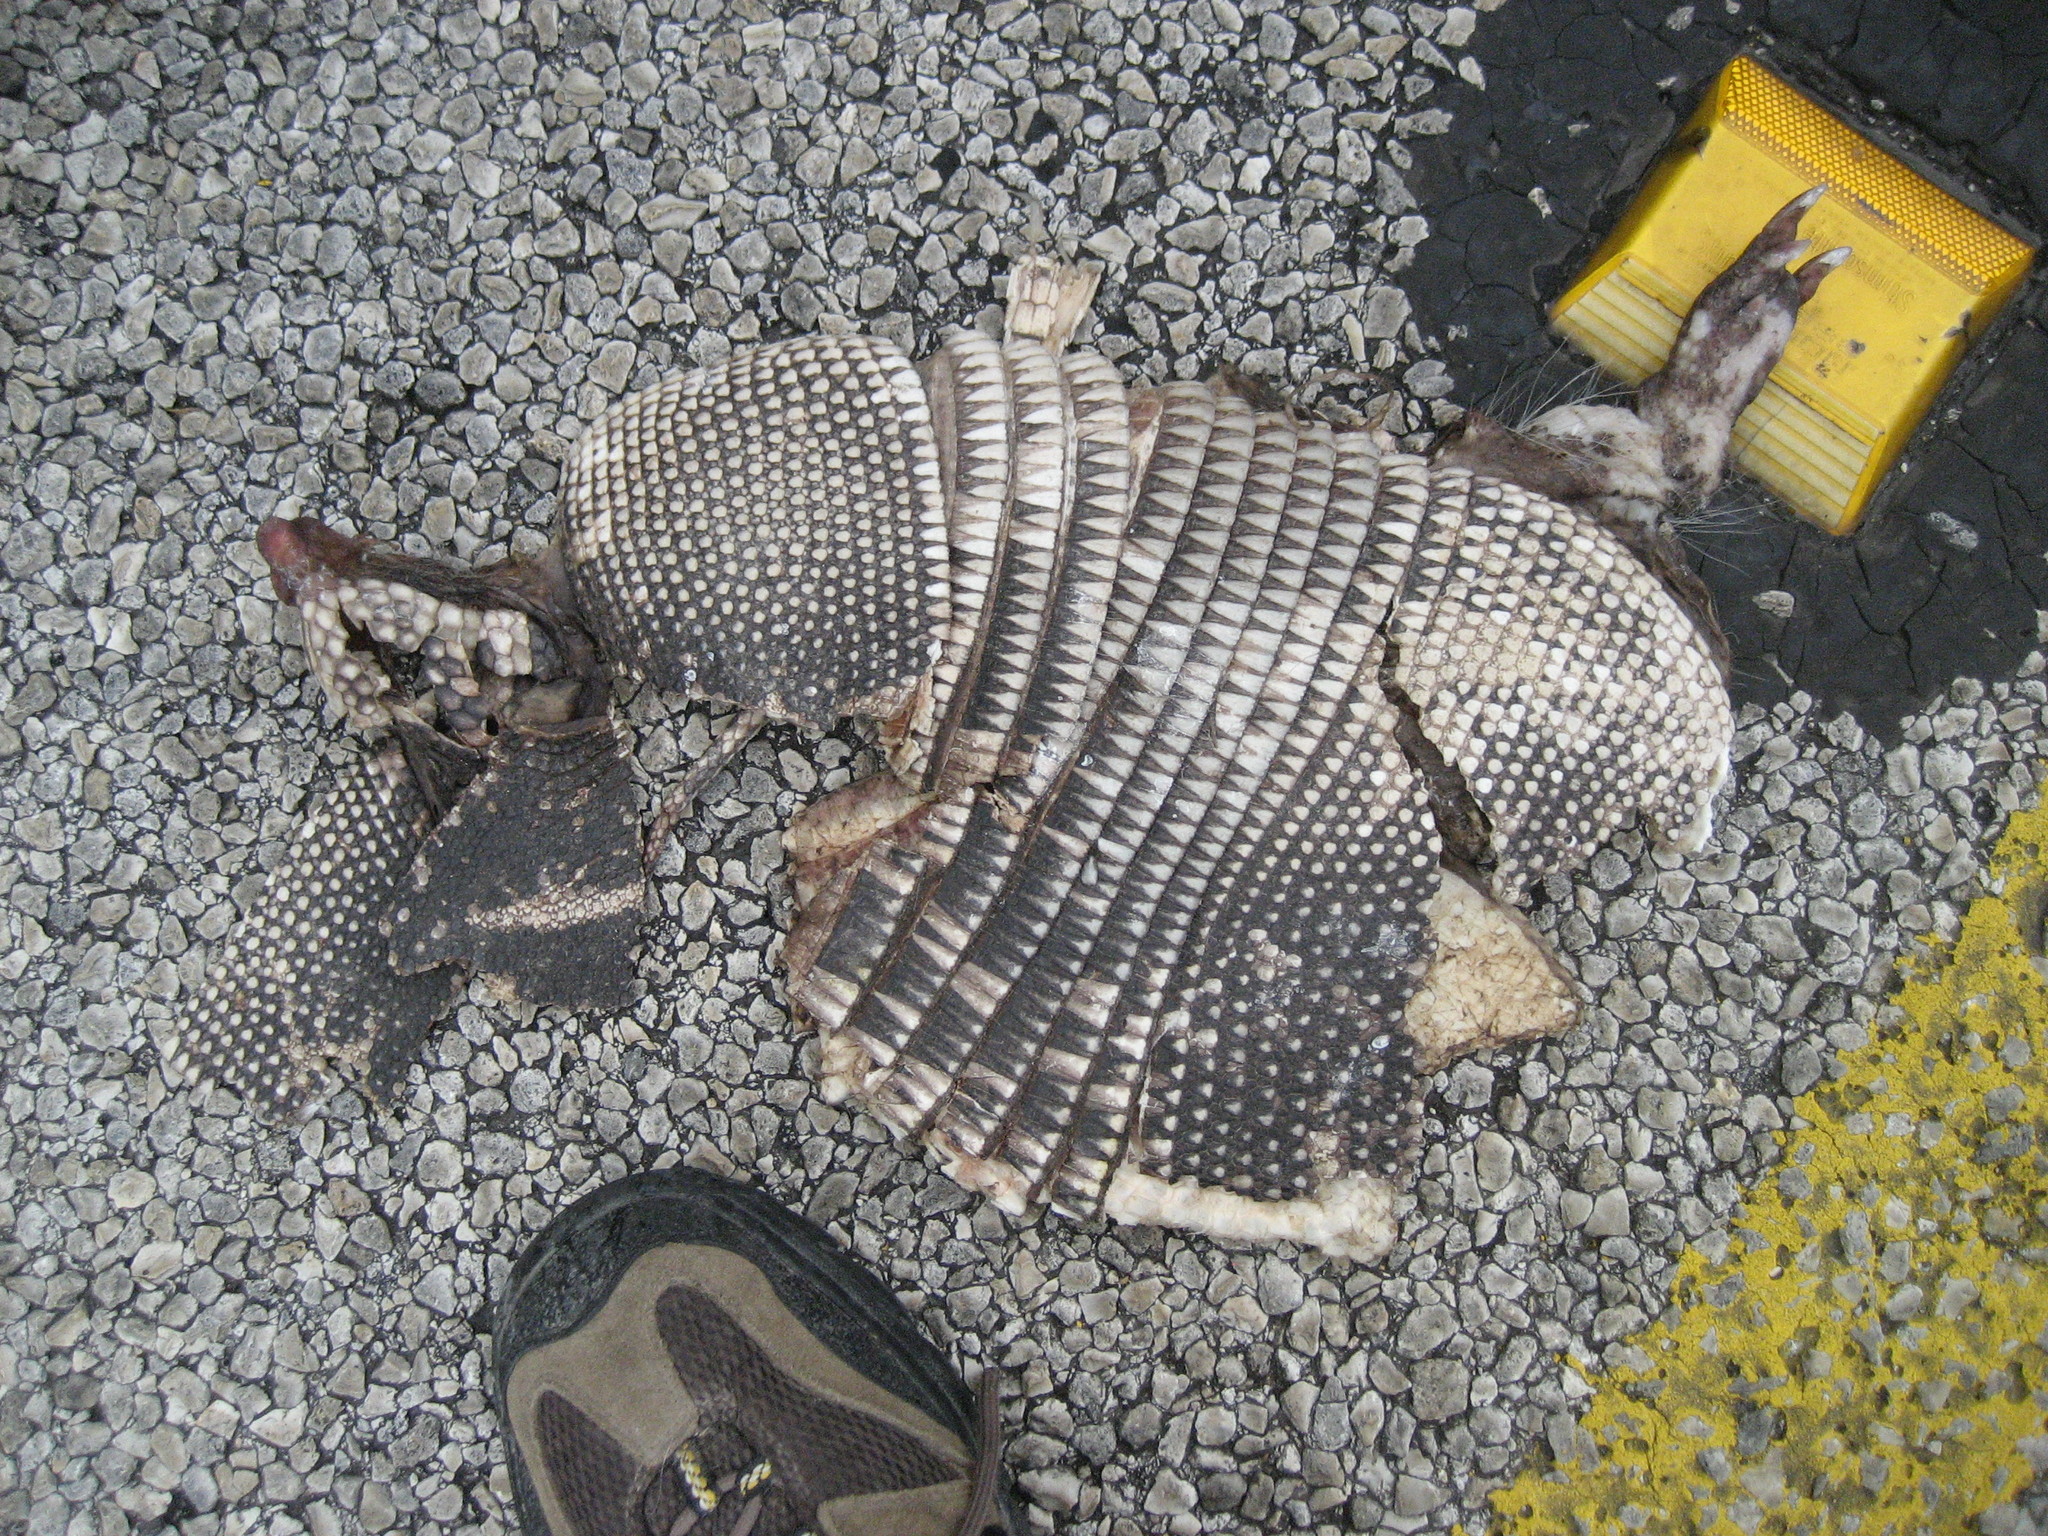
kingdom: Animalia
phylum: Chordata
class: Mammalia
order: Cingulata
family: Dasypodidae
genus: Dasypus
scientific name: Dasypus novemcinctus
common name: Nine-banded armadillo
